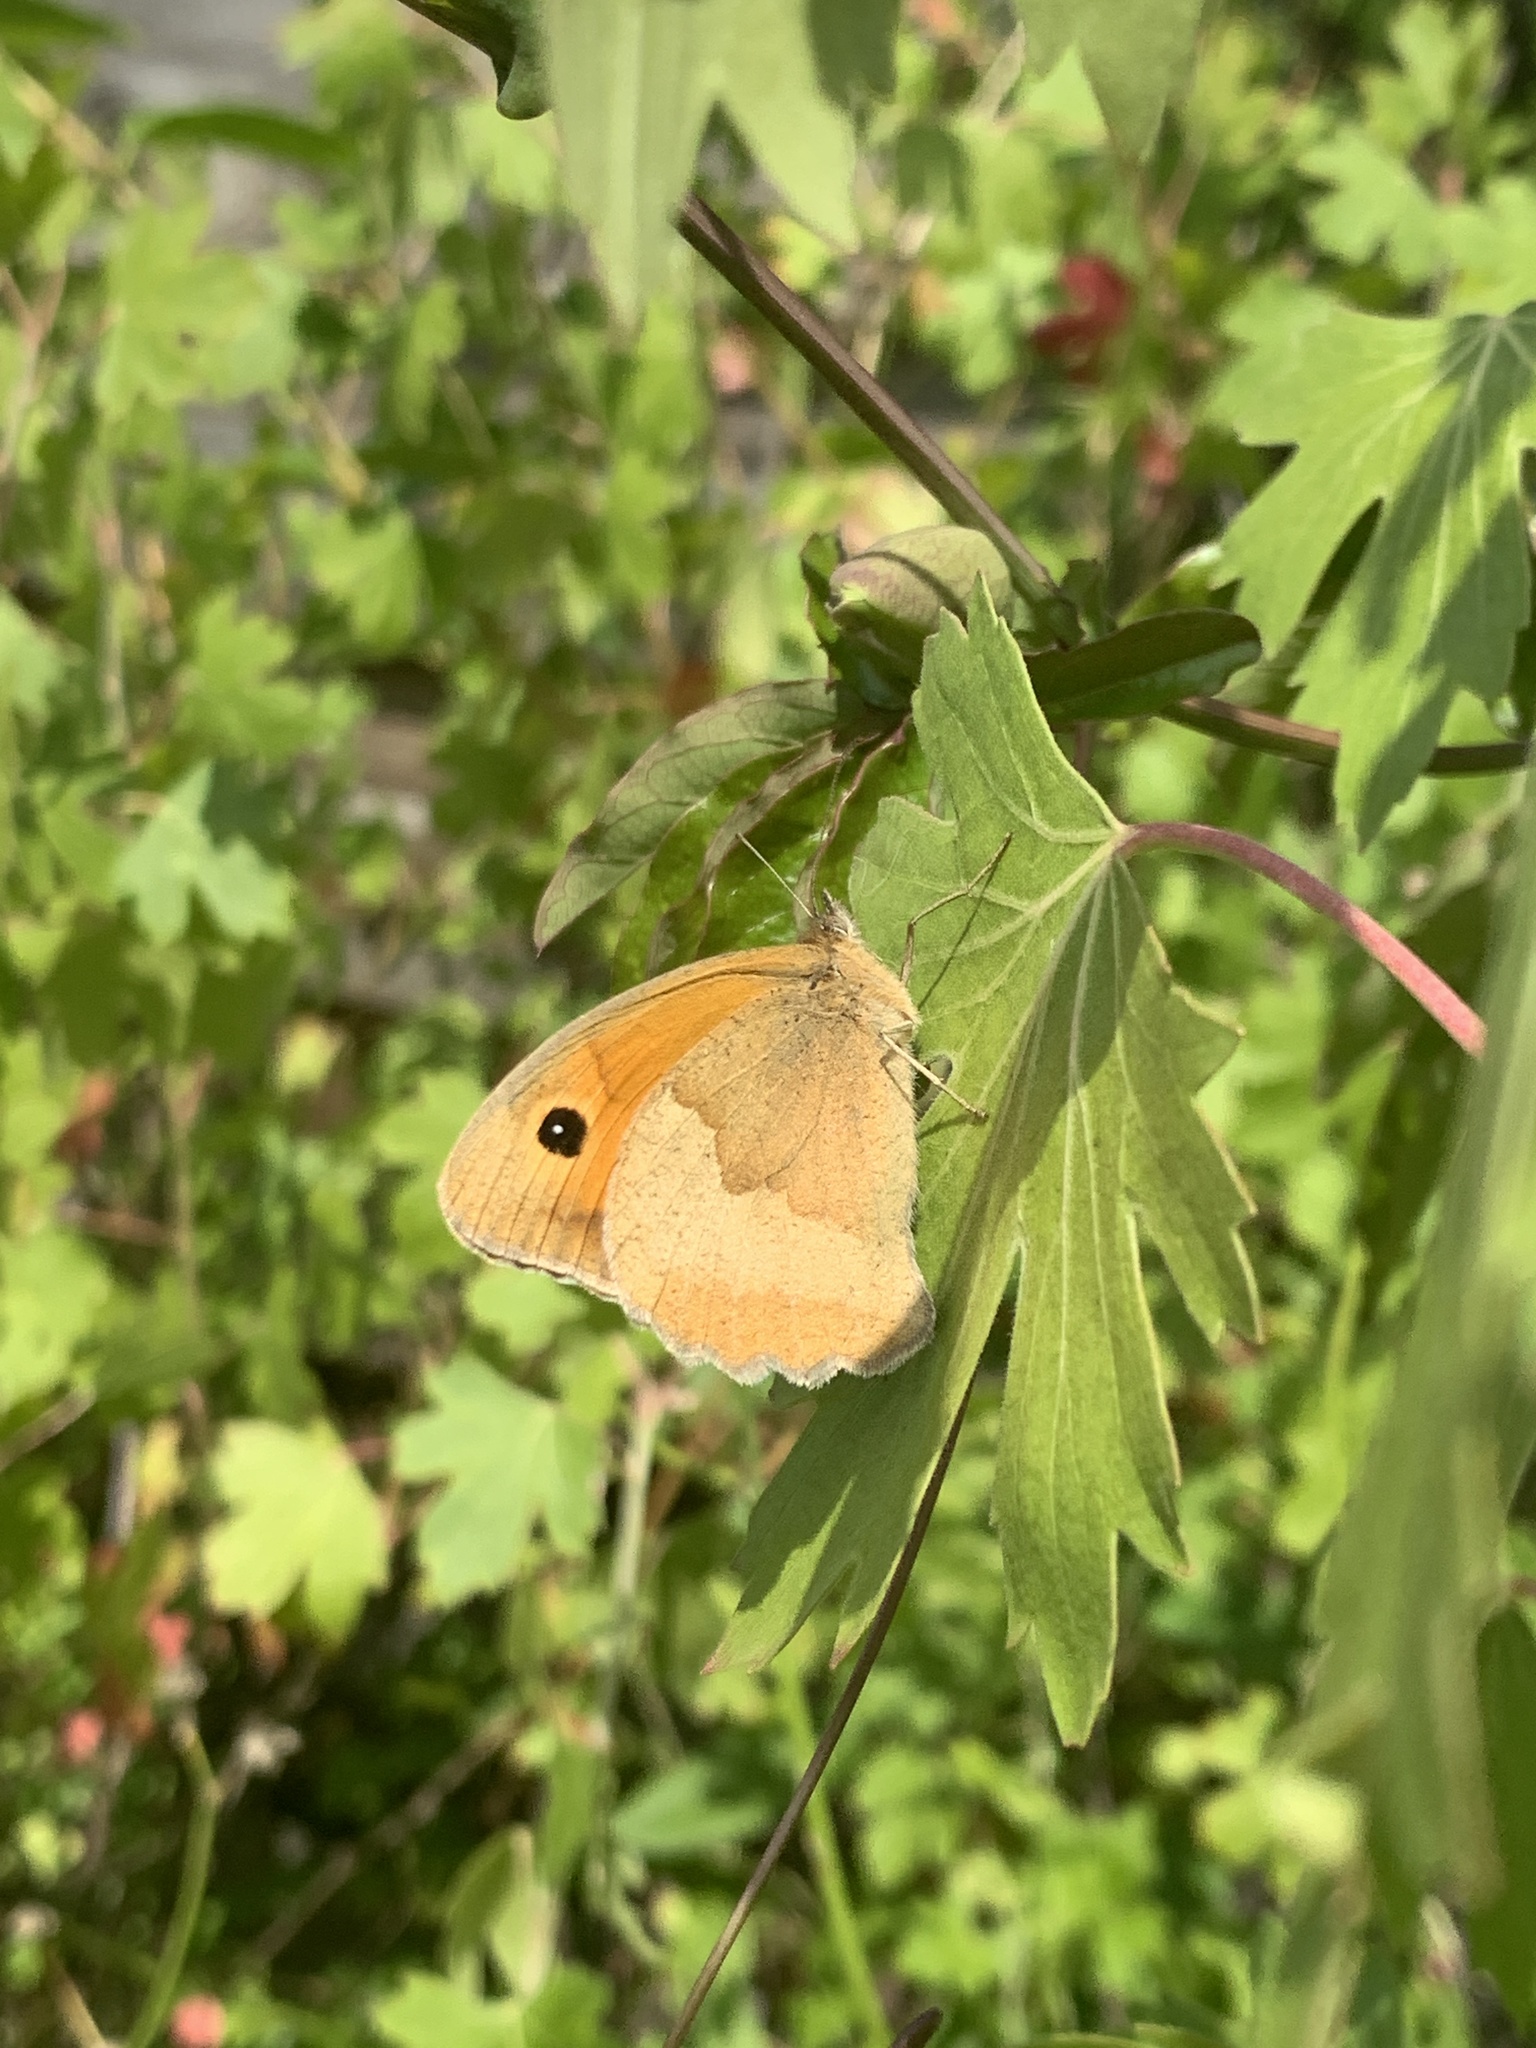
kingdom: Animalia
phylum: Arthropoda
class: Insecta
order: Lepidoptera
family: Nymphalidae
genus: Maniola
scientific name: Maniola jurtina
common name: Meadow brown
